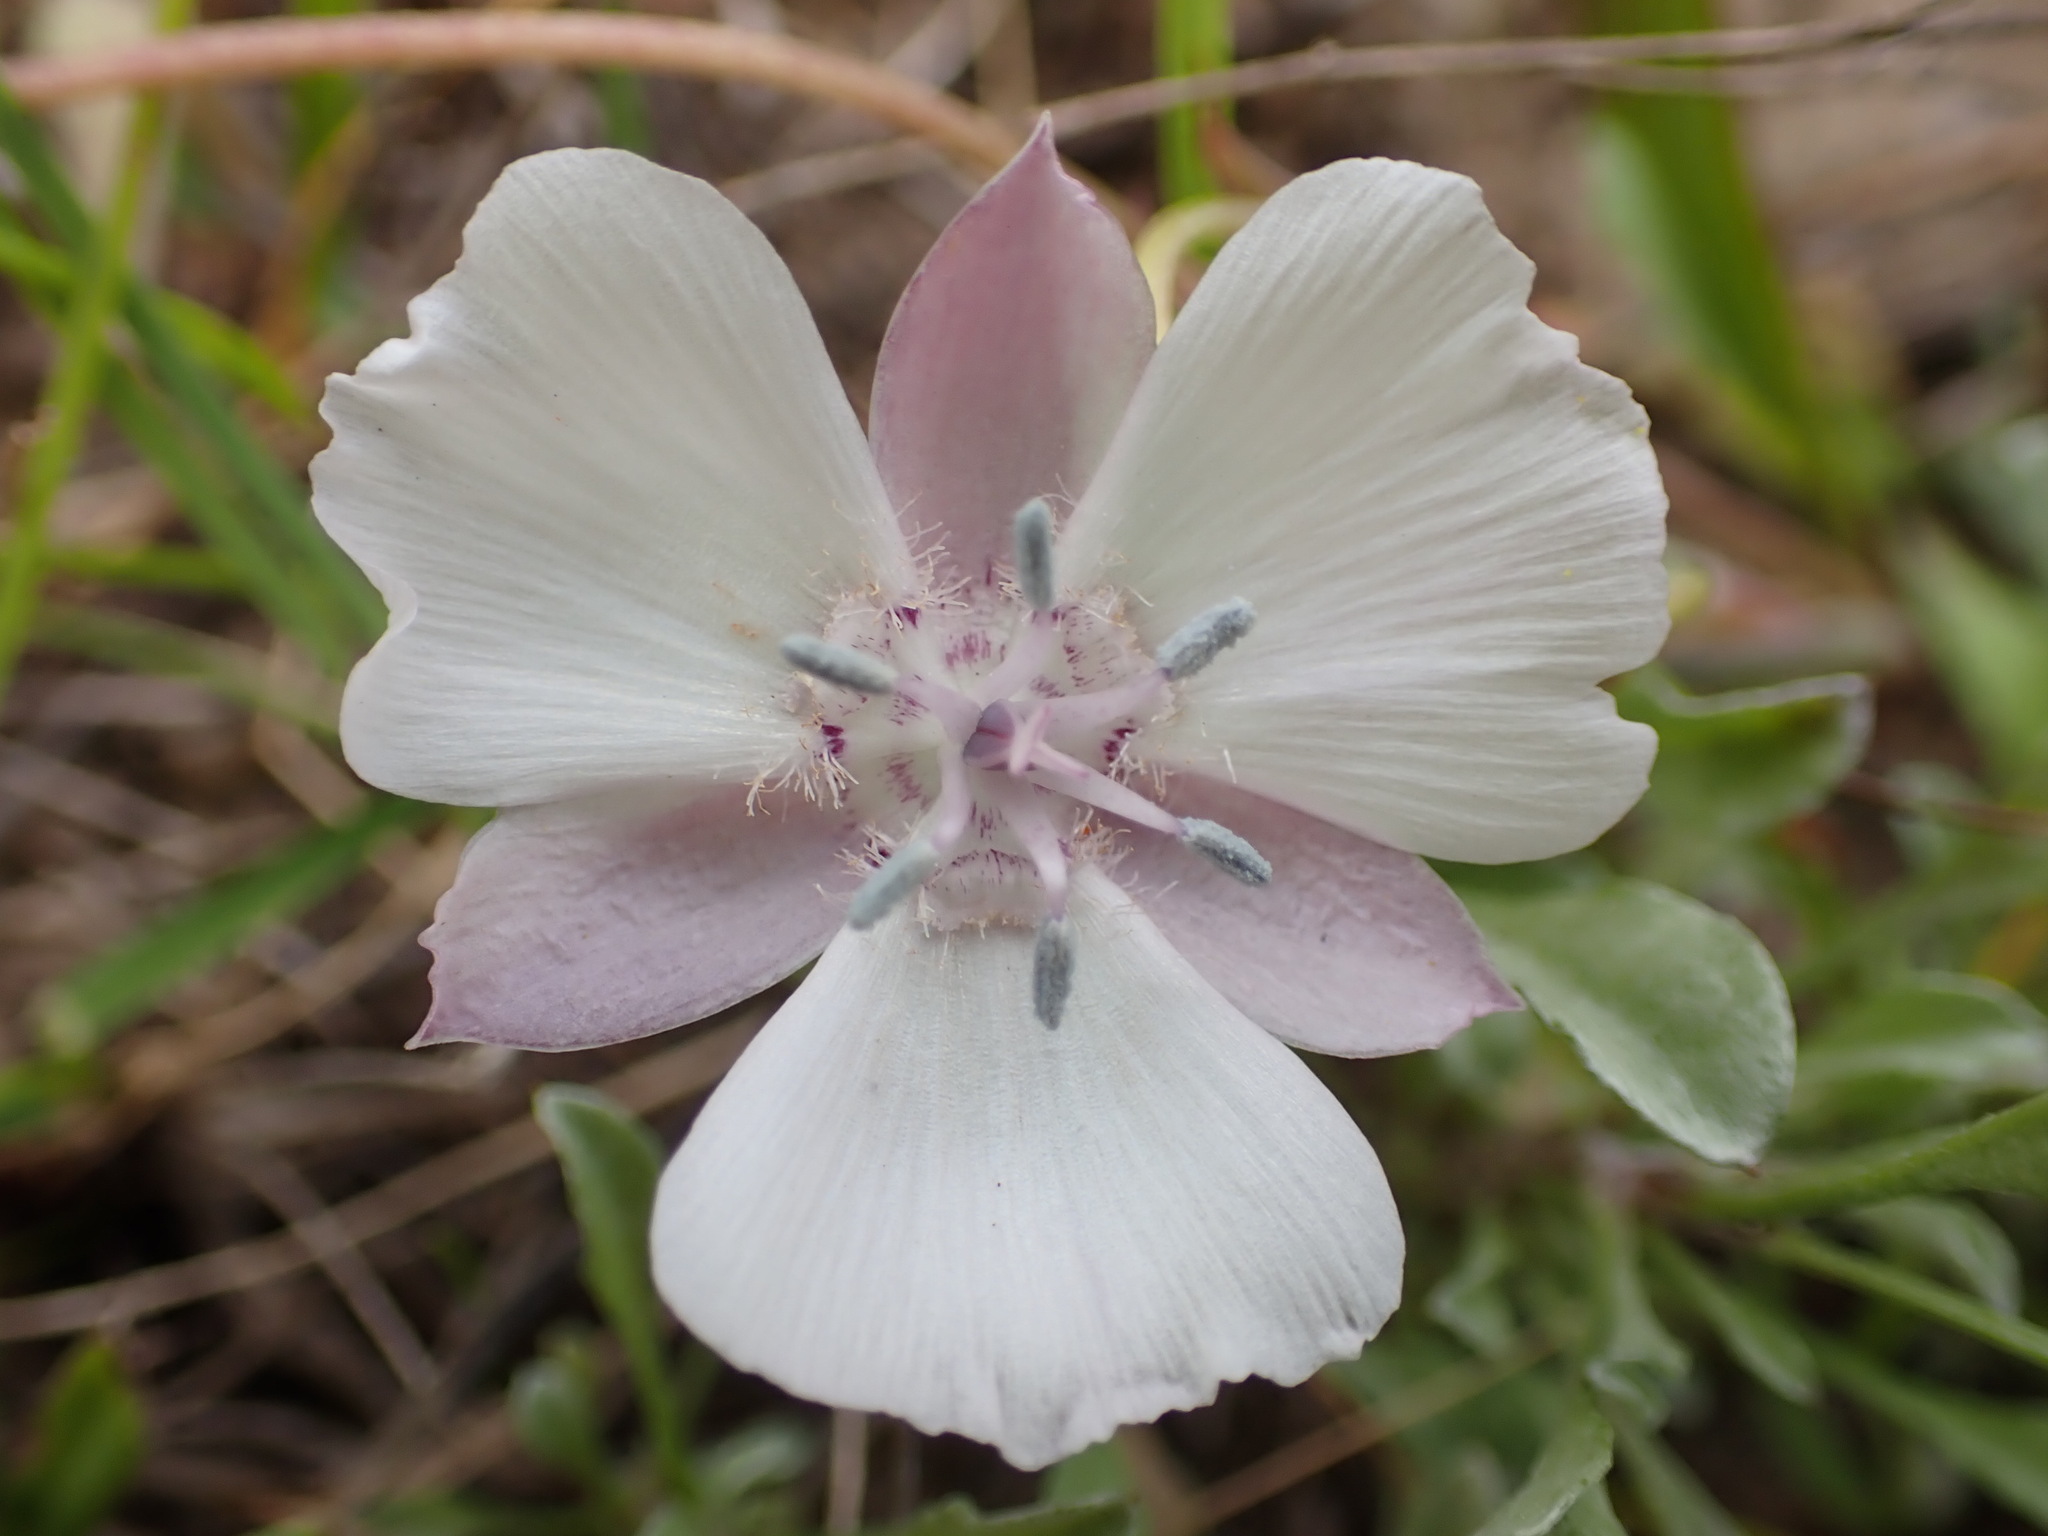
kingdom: Plantae
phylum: Tracheophyta
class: Liliopsida
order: Liliales
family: Liliaceae
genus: Calochortus
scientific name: Calochortus umbellatus
